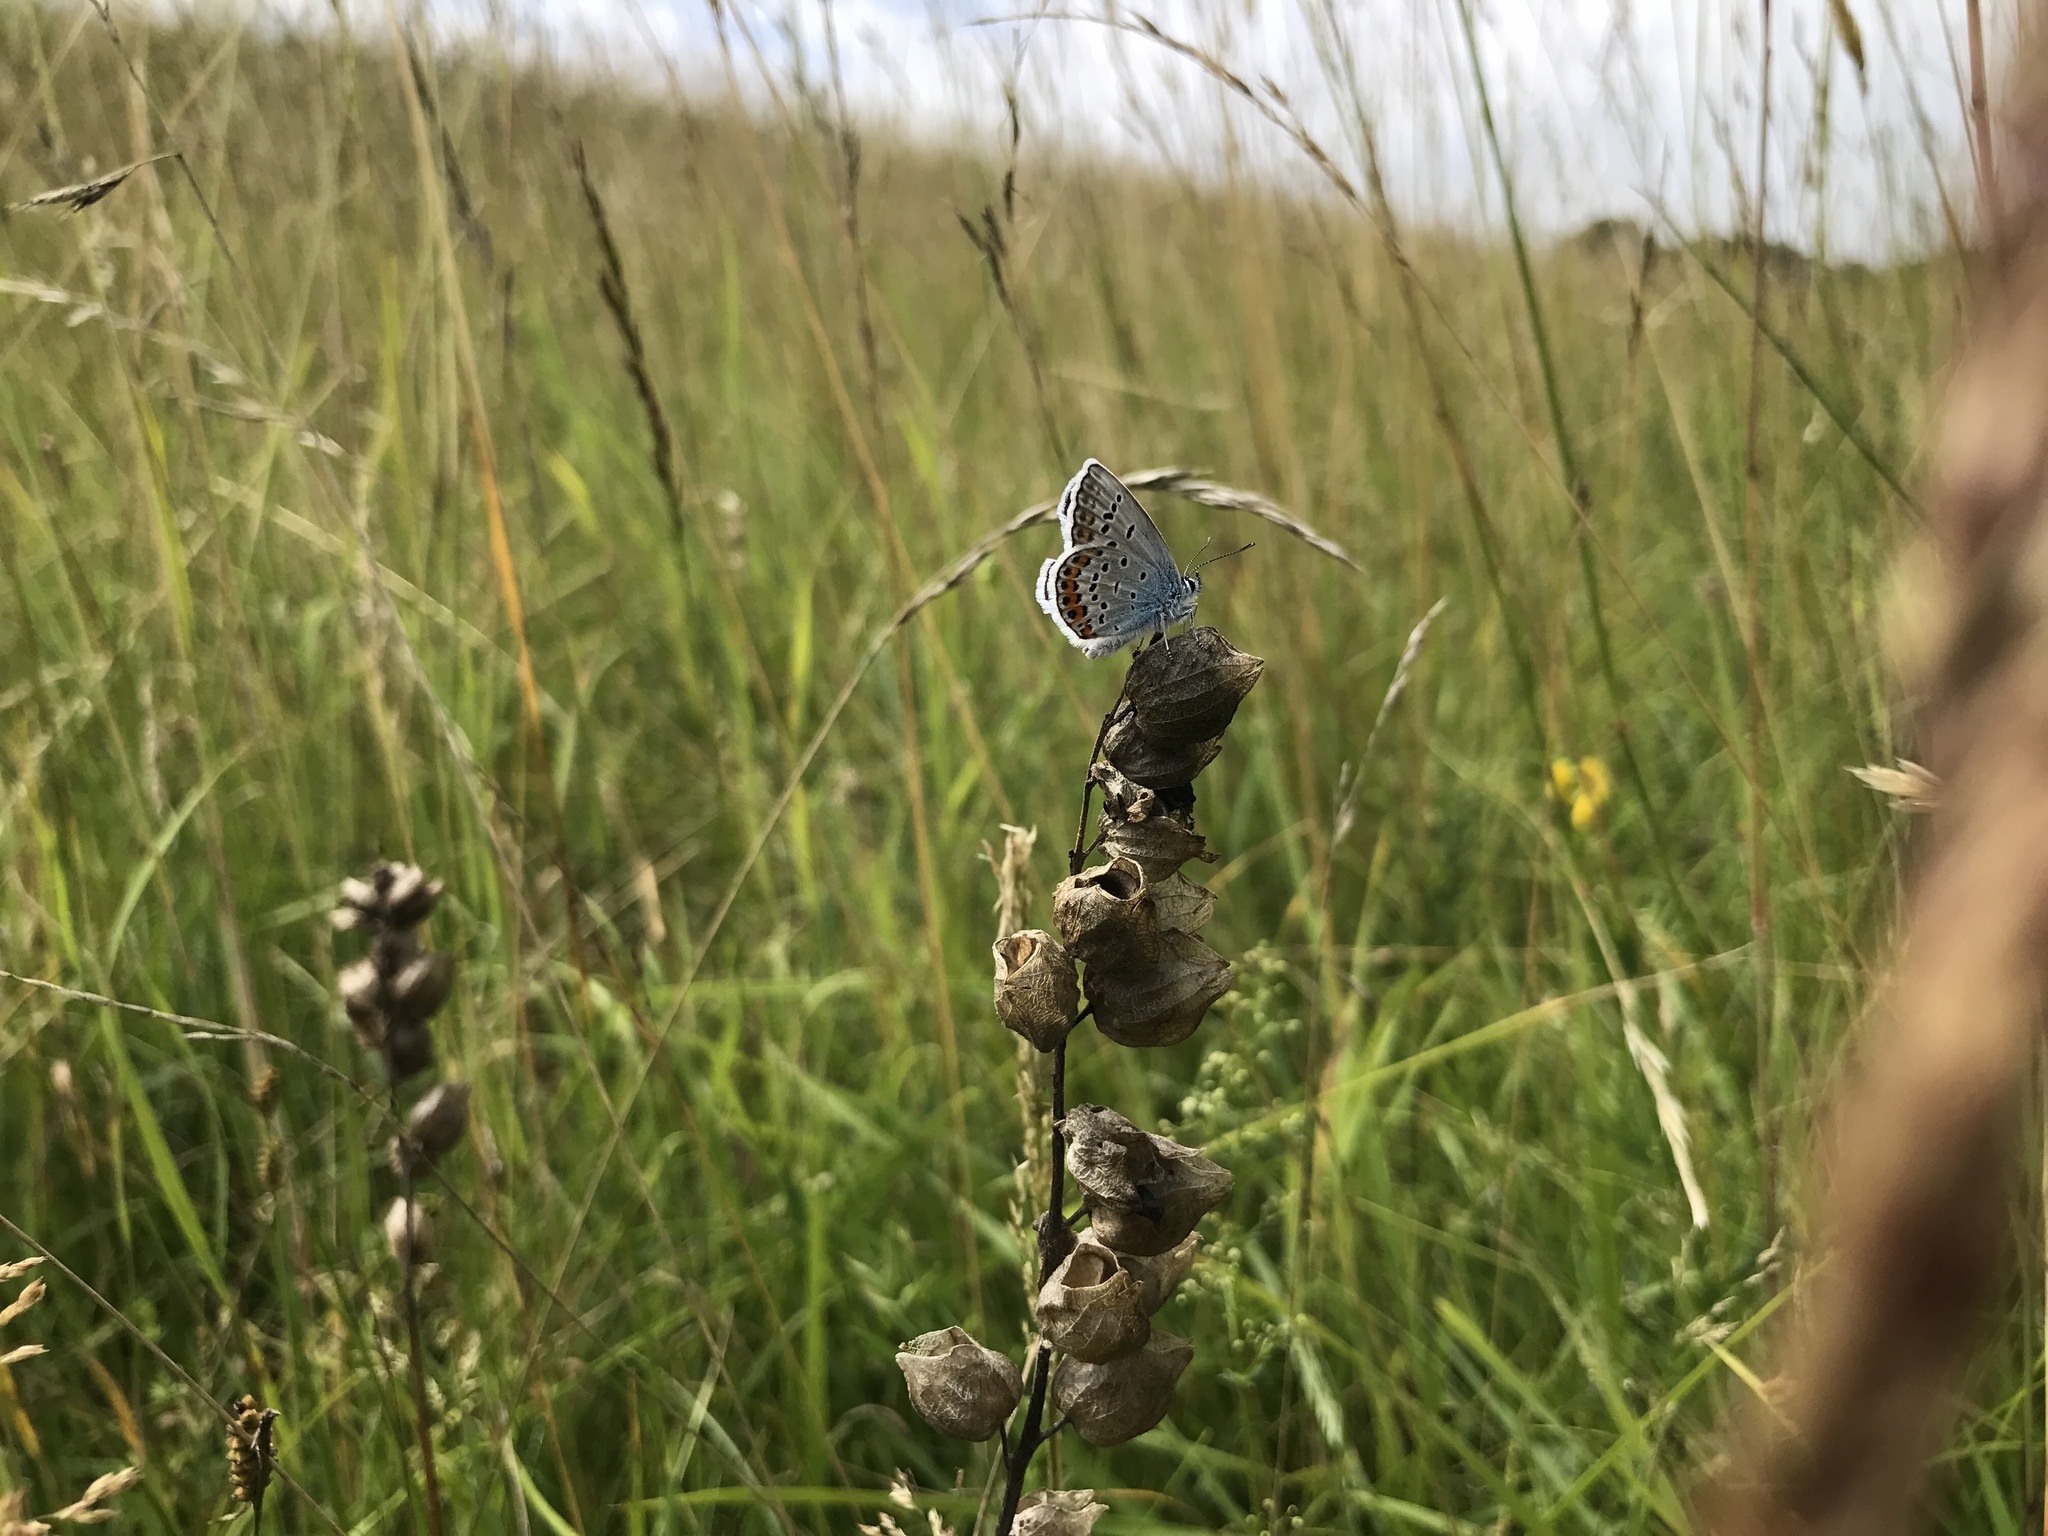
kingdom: Animalia
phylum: Arthropoda
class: Insecta
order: Lepidoptera
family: Lycaenidae
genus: Plebejus
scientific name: Plebejus argus
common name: Silver-studded blue
